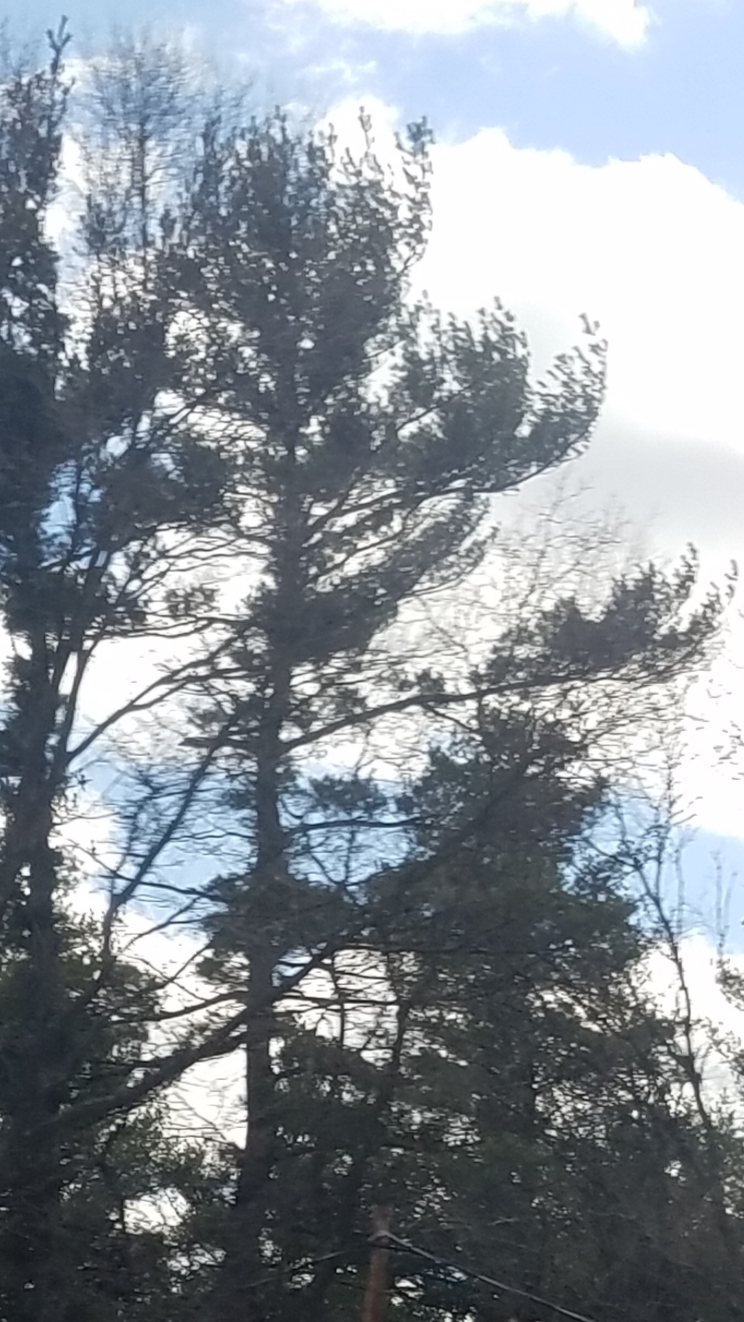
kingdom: Plantae
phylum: Tracheophyta
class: Pinopsida
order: Pinales
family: Pinaceae
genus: Pinus
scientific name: Pinus strobus
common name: Weymouth pine
